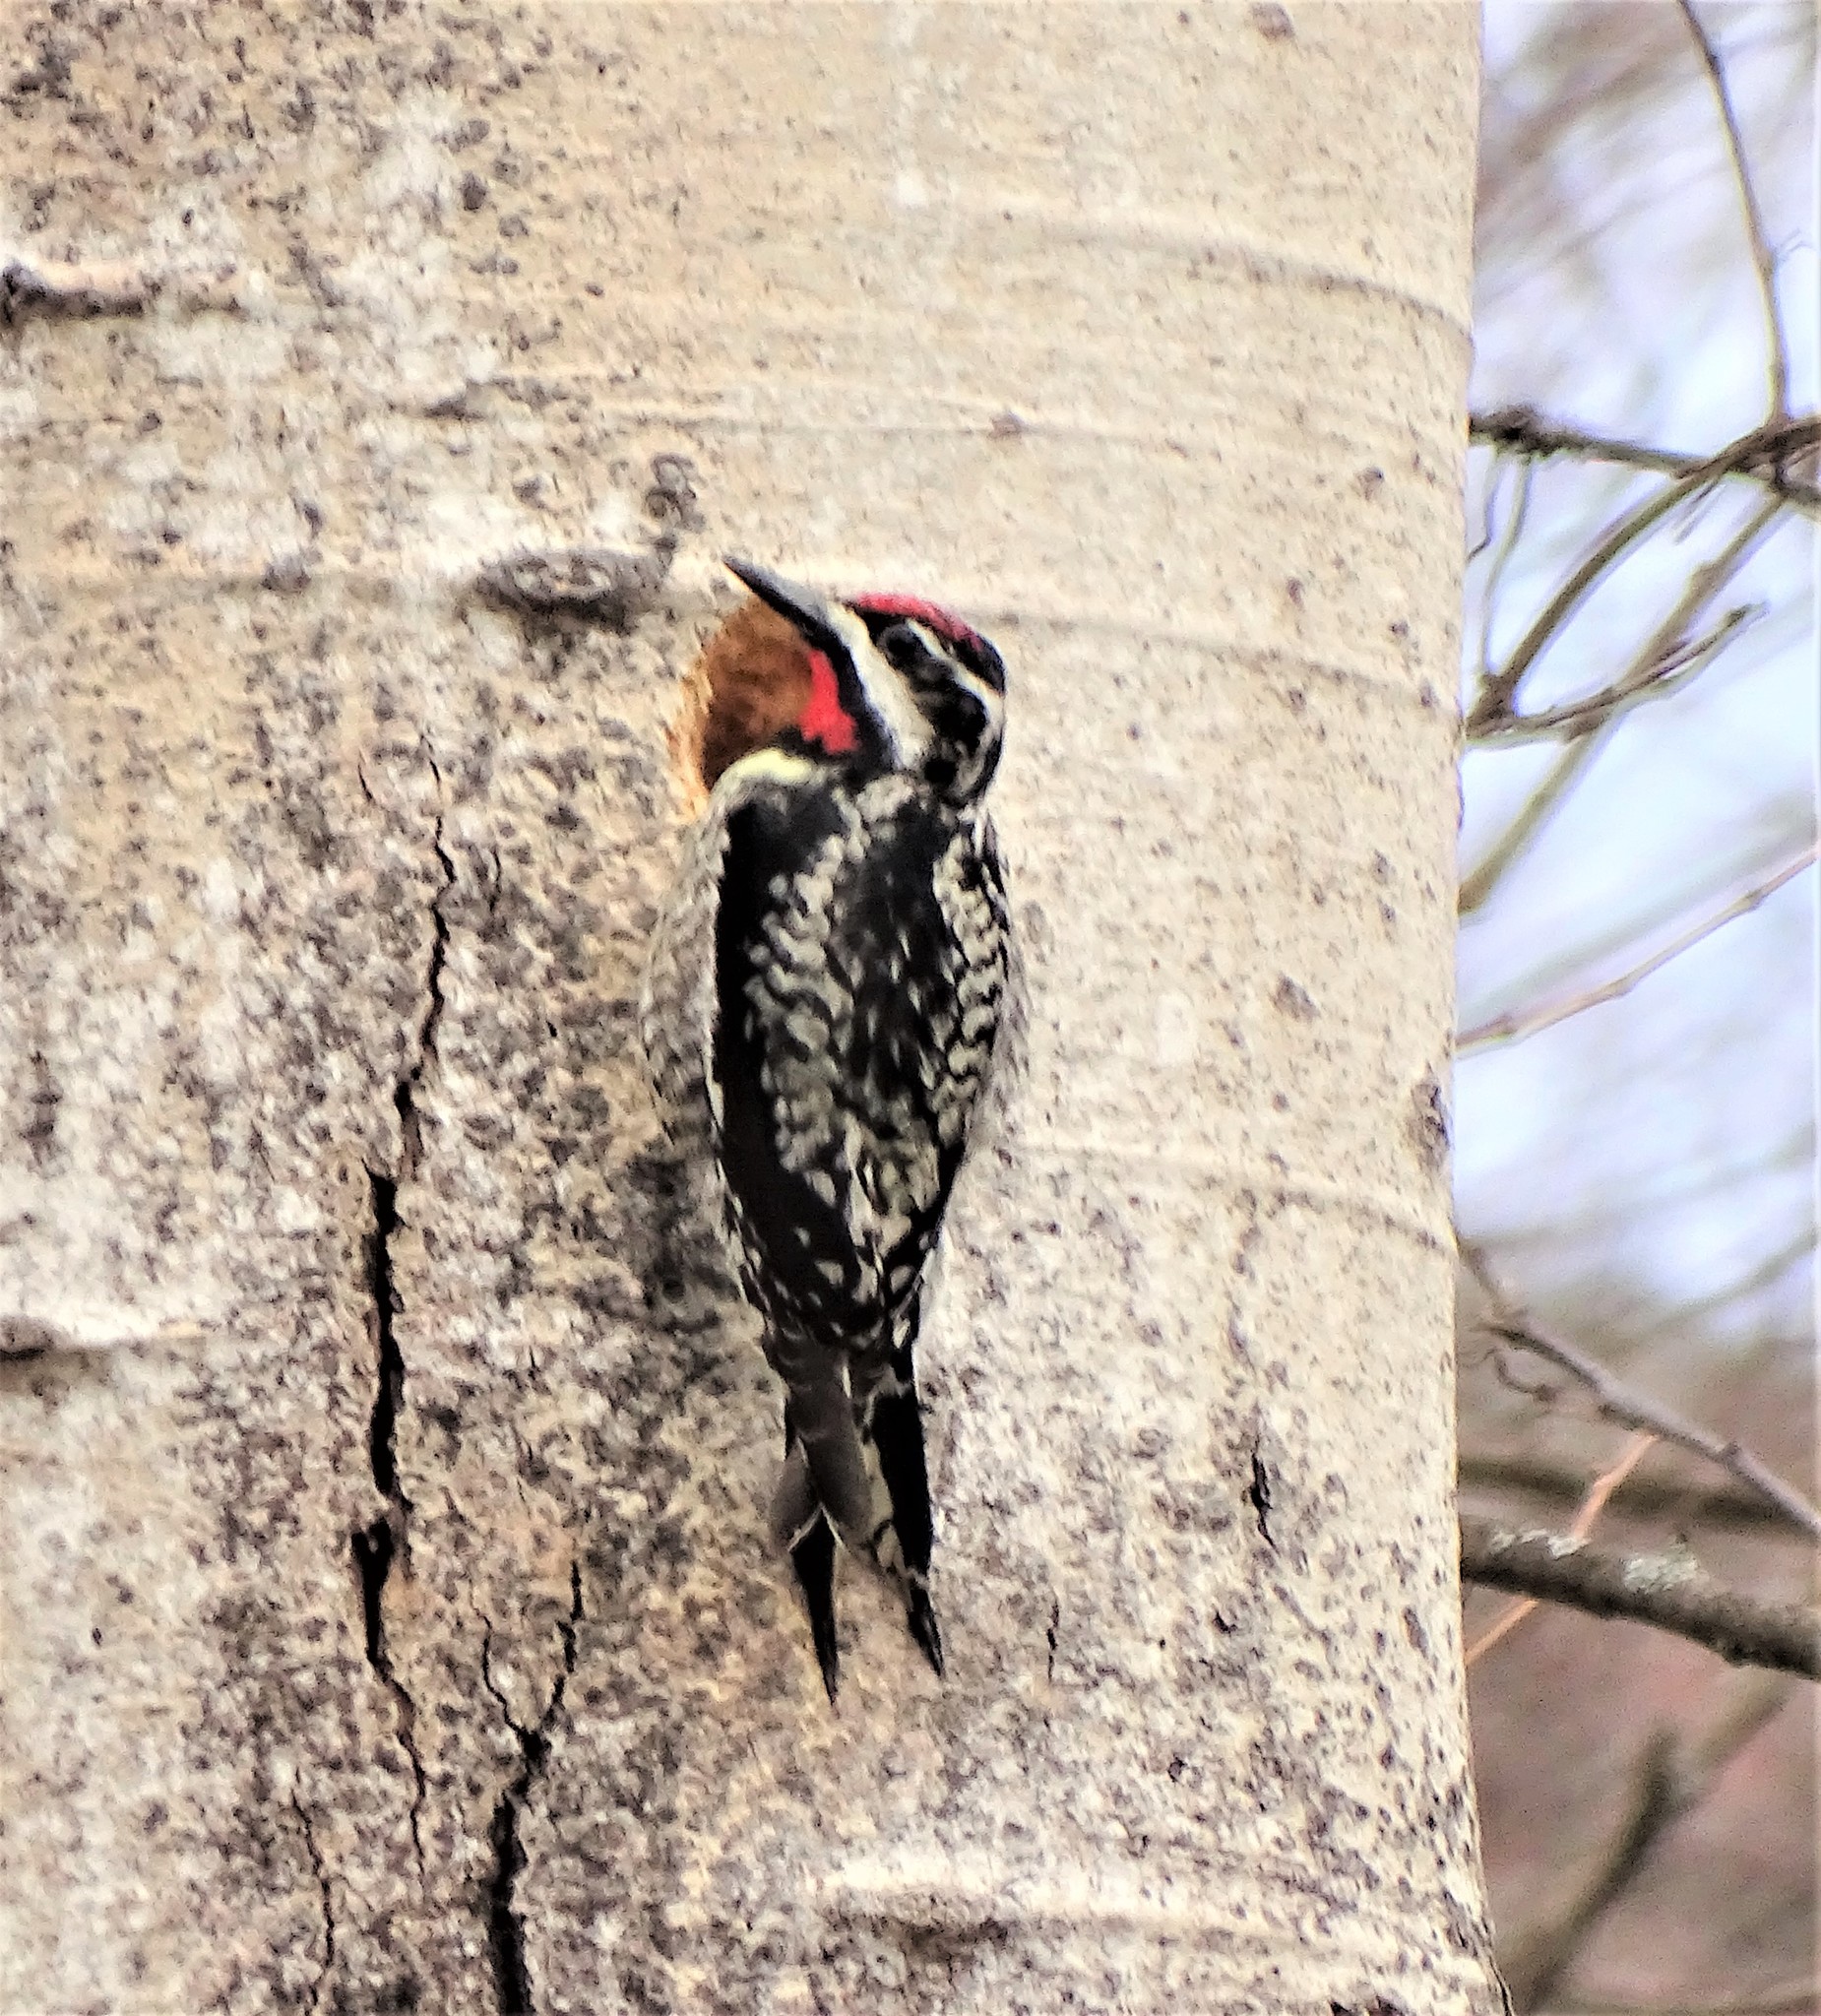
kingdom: Animalia
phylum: Chordata
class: Aves
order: Piciformes
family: Picidae
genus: Sphyrapicus
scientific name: Sphyrapicus varius
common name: Yellow-bellied sapsucker
